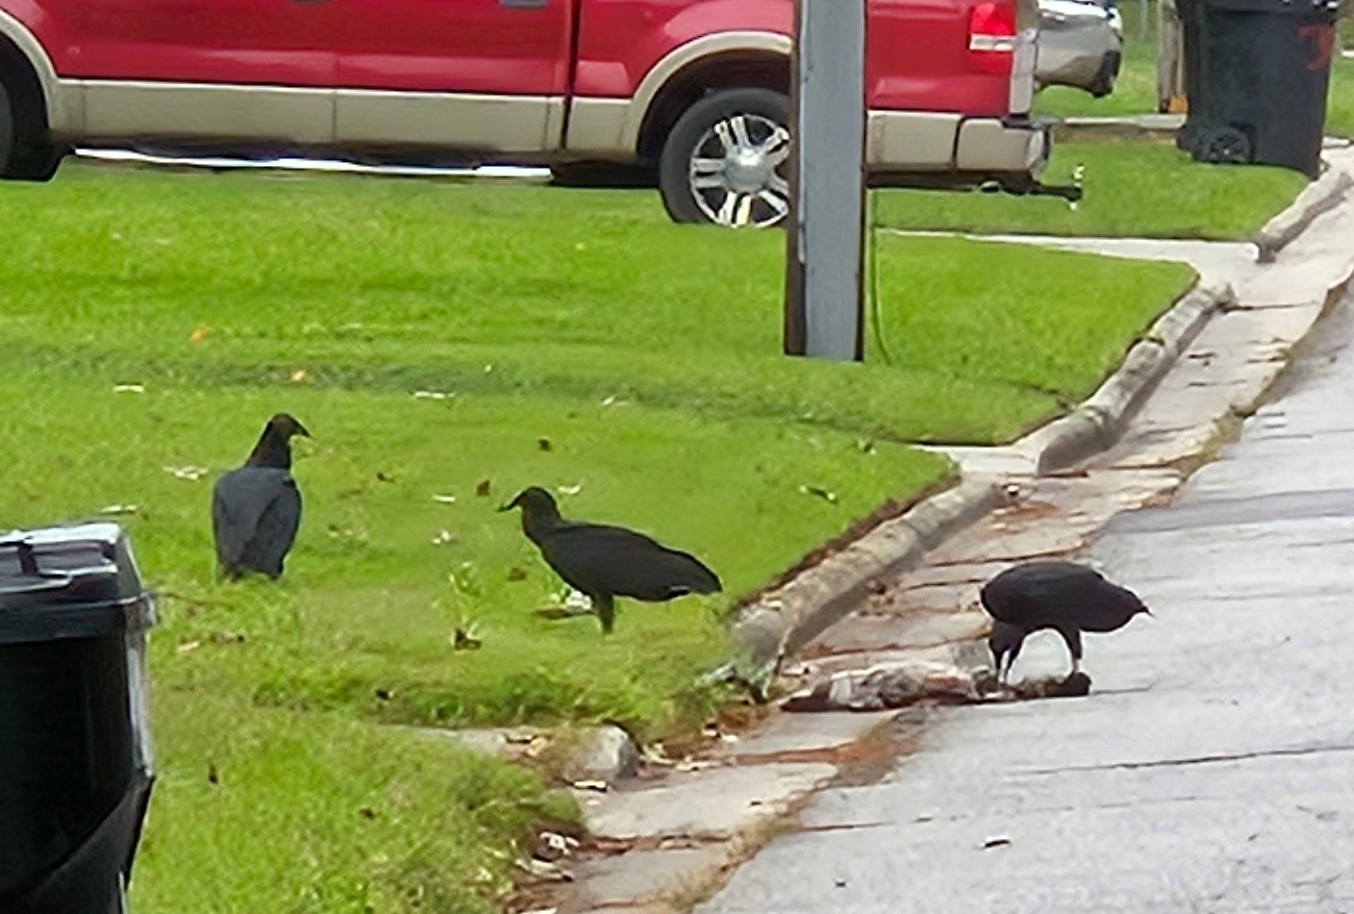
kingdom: Animalia
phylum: Chordata
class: Aves
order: Accipitriformes
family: Cathartidae
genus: Coragyps
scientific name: Coragyps atratus
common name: Black vulture
